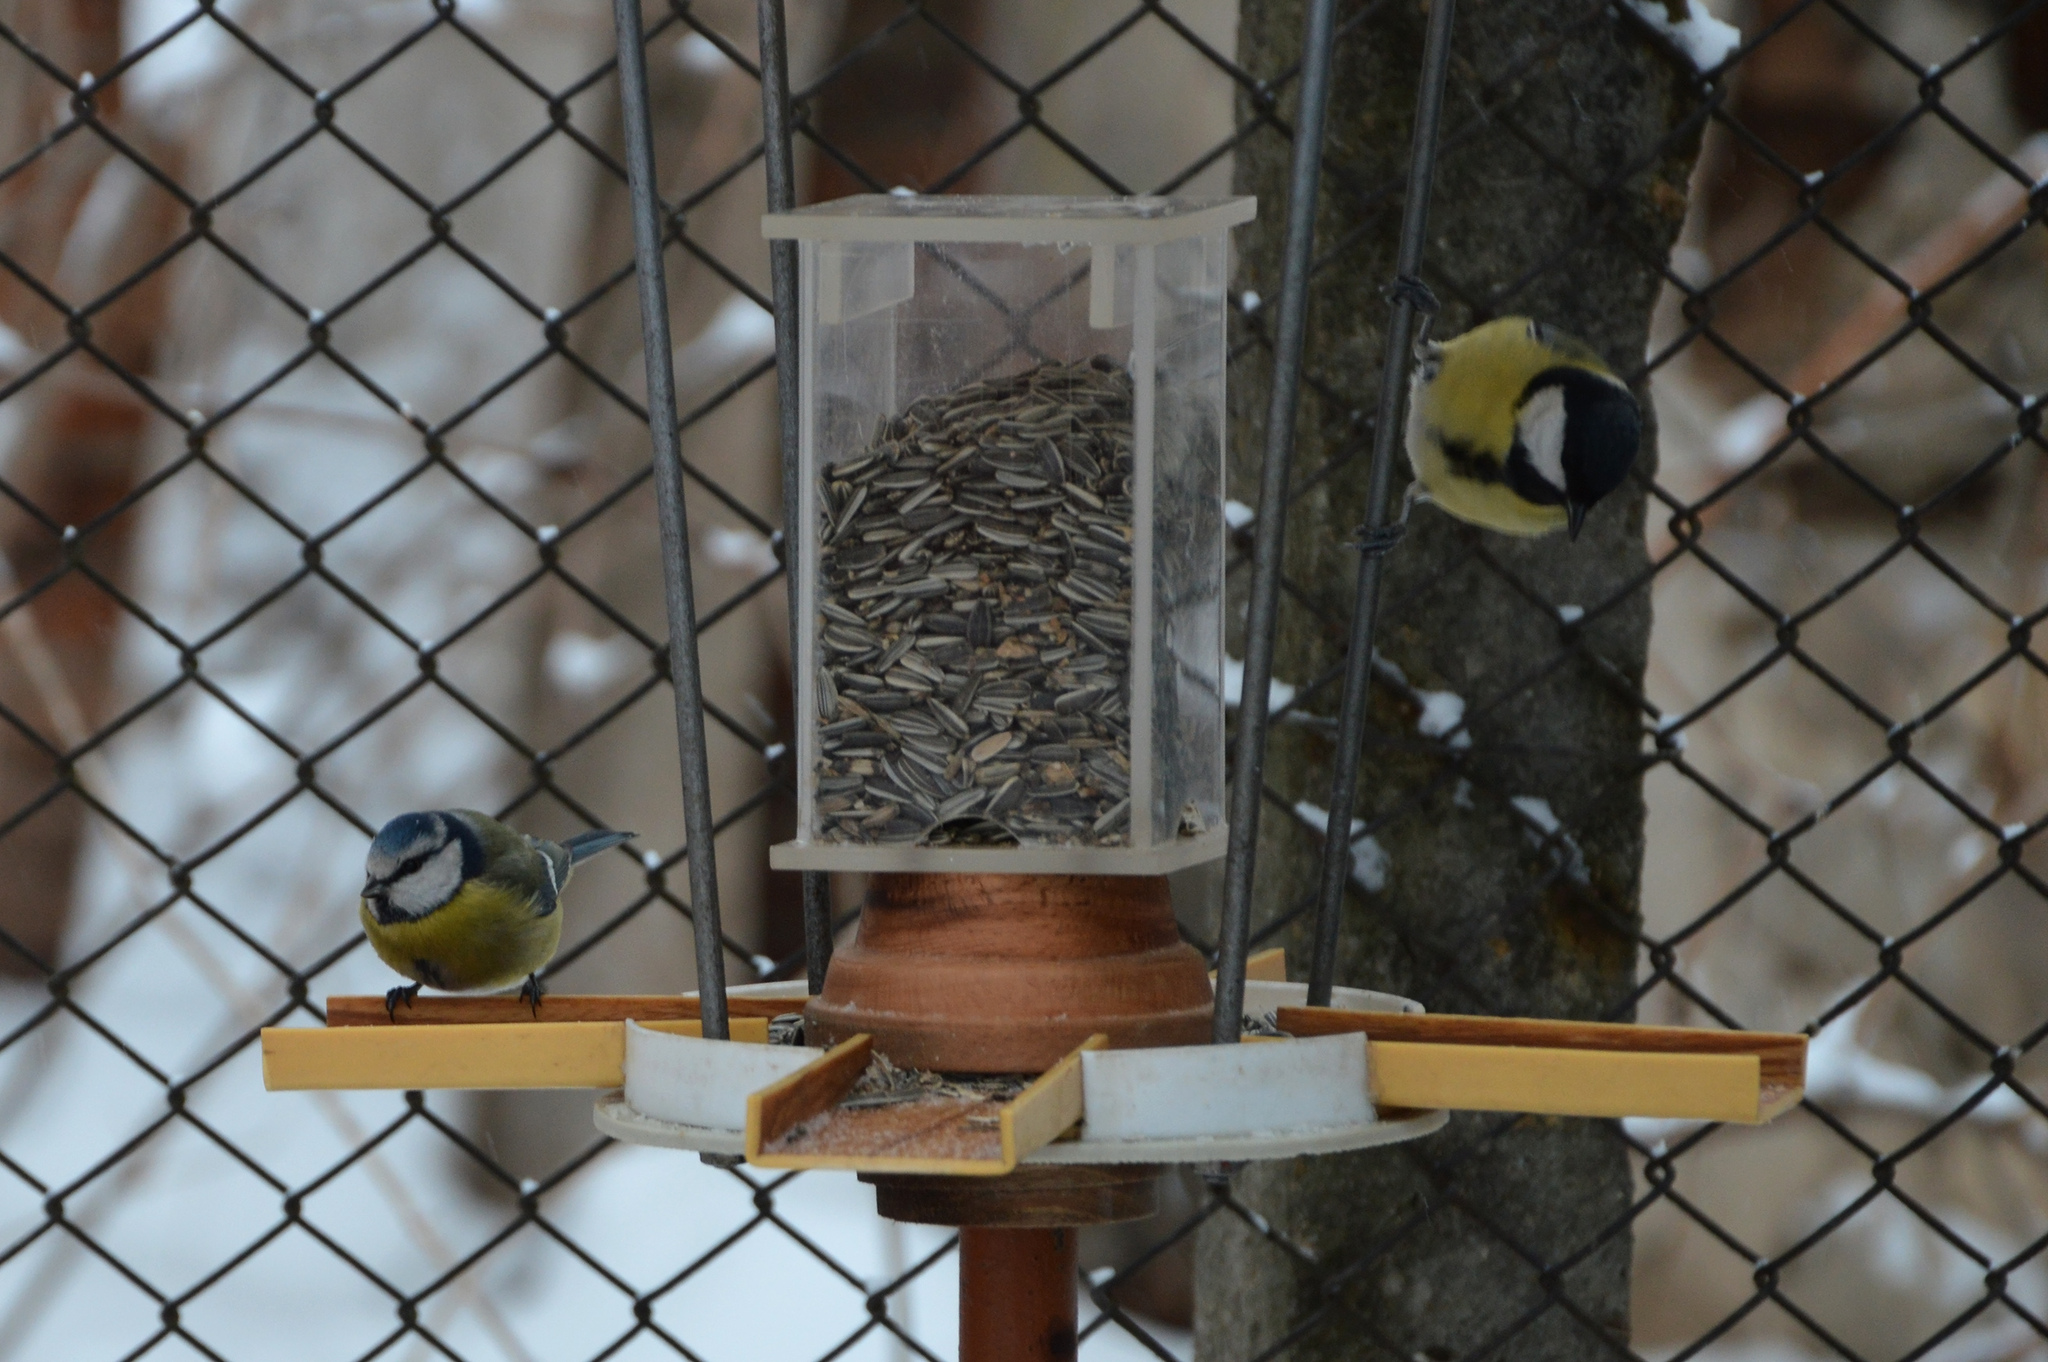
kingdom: Animalia
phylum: Chordata
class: Aves
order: Passeriformes
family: Paridae
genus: Cyanistes
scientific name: Cyanistes caeruleus
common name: Eurasian blue tit
